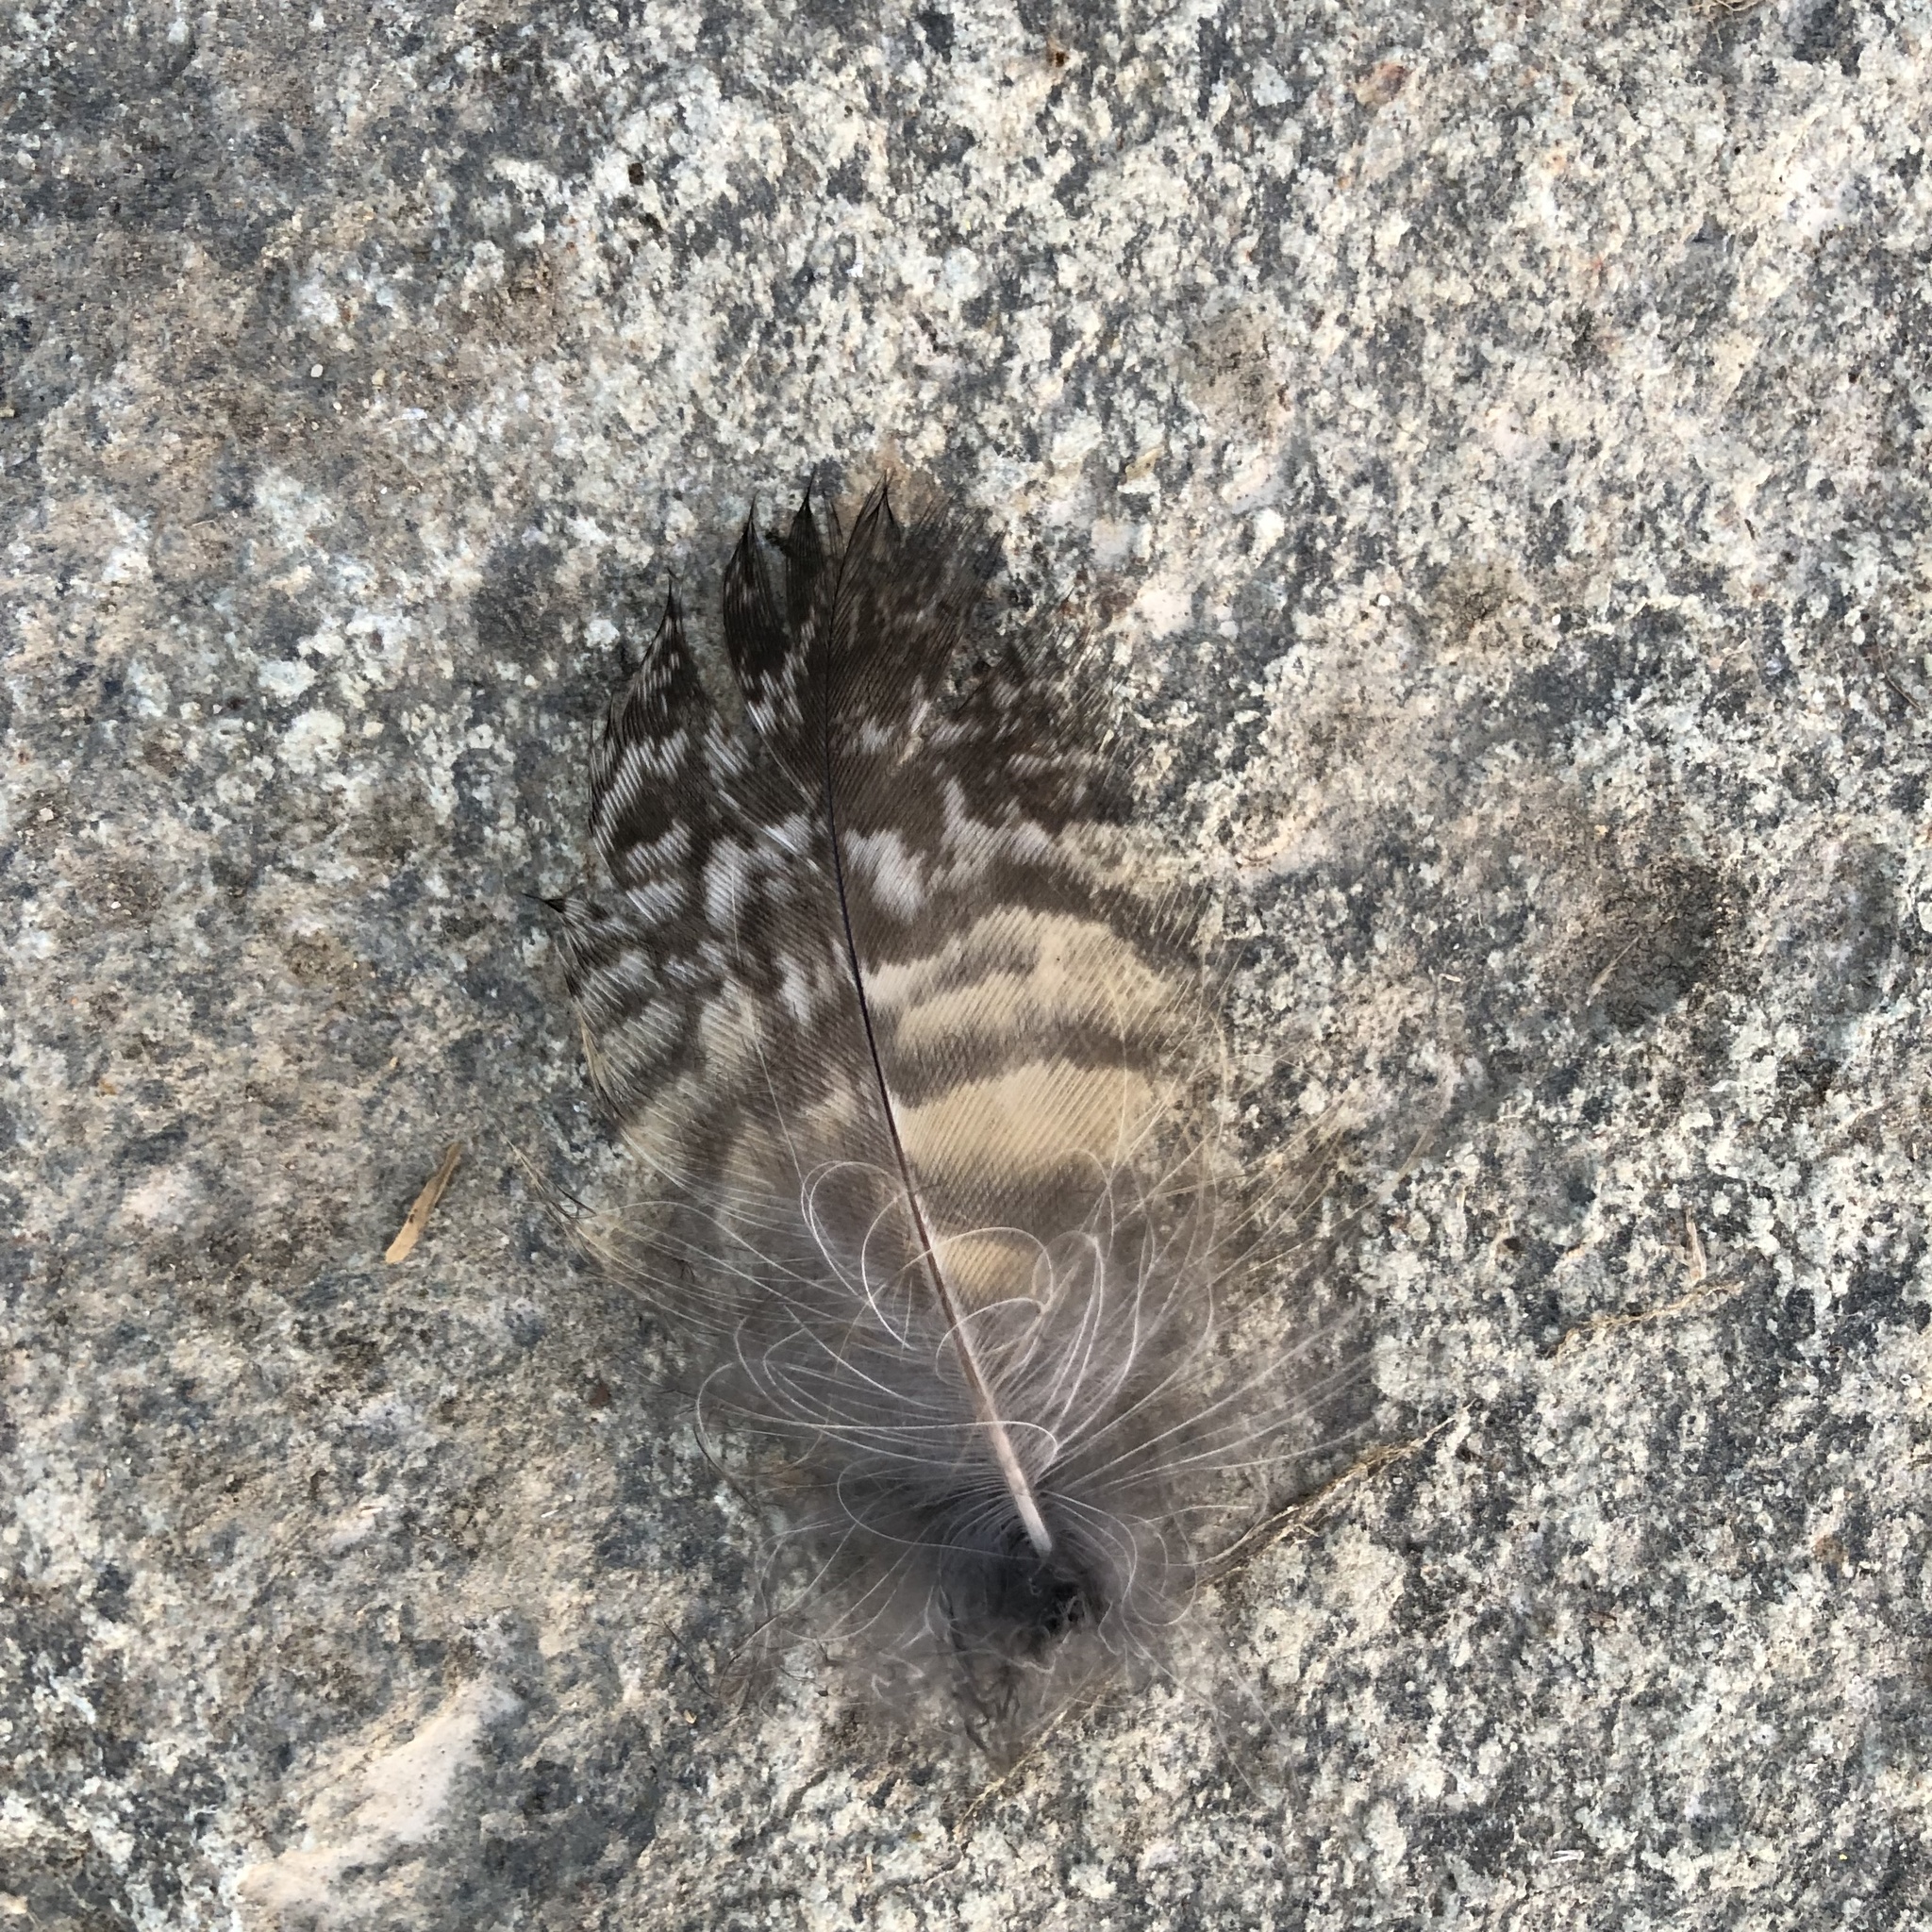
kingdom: Animalia
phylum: Chordata
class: Aves
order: Strigiformes
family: Strigidae
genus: Bubo
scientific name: Bubo virginianus
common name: Great horned owl
